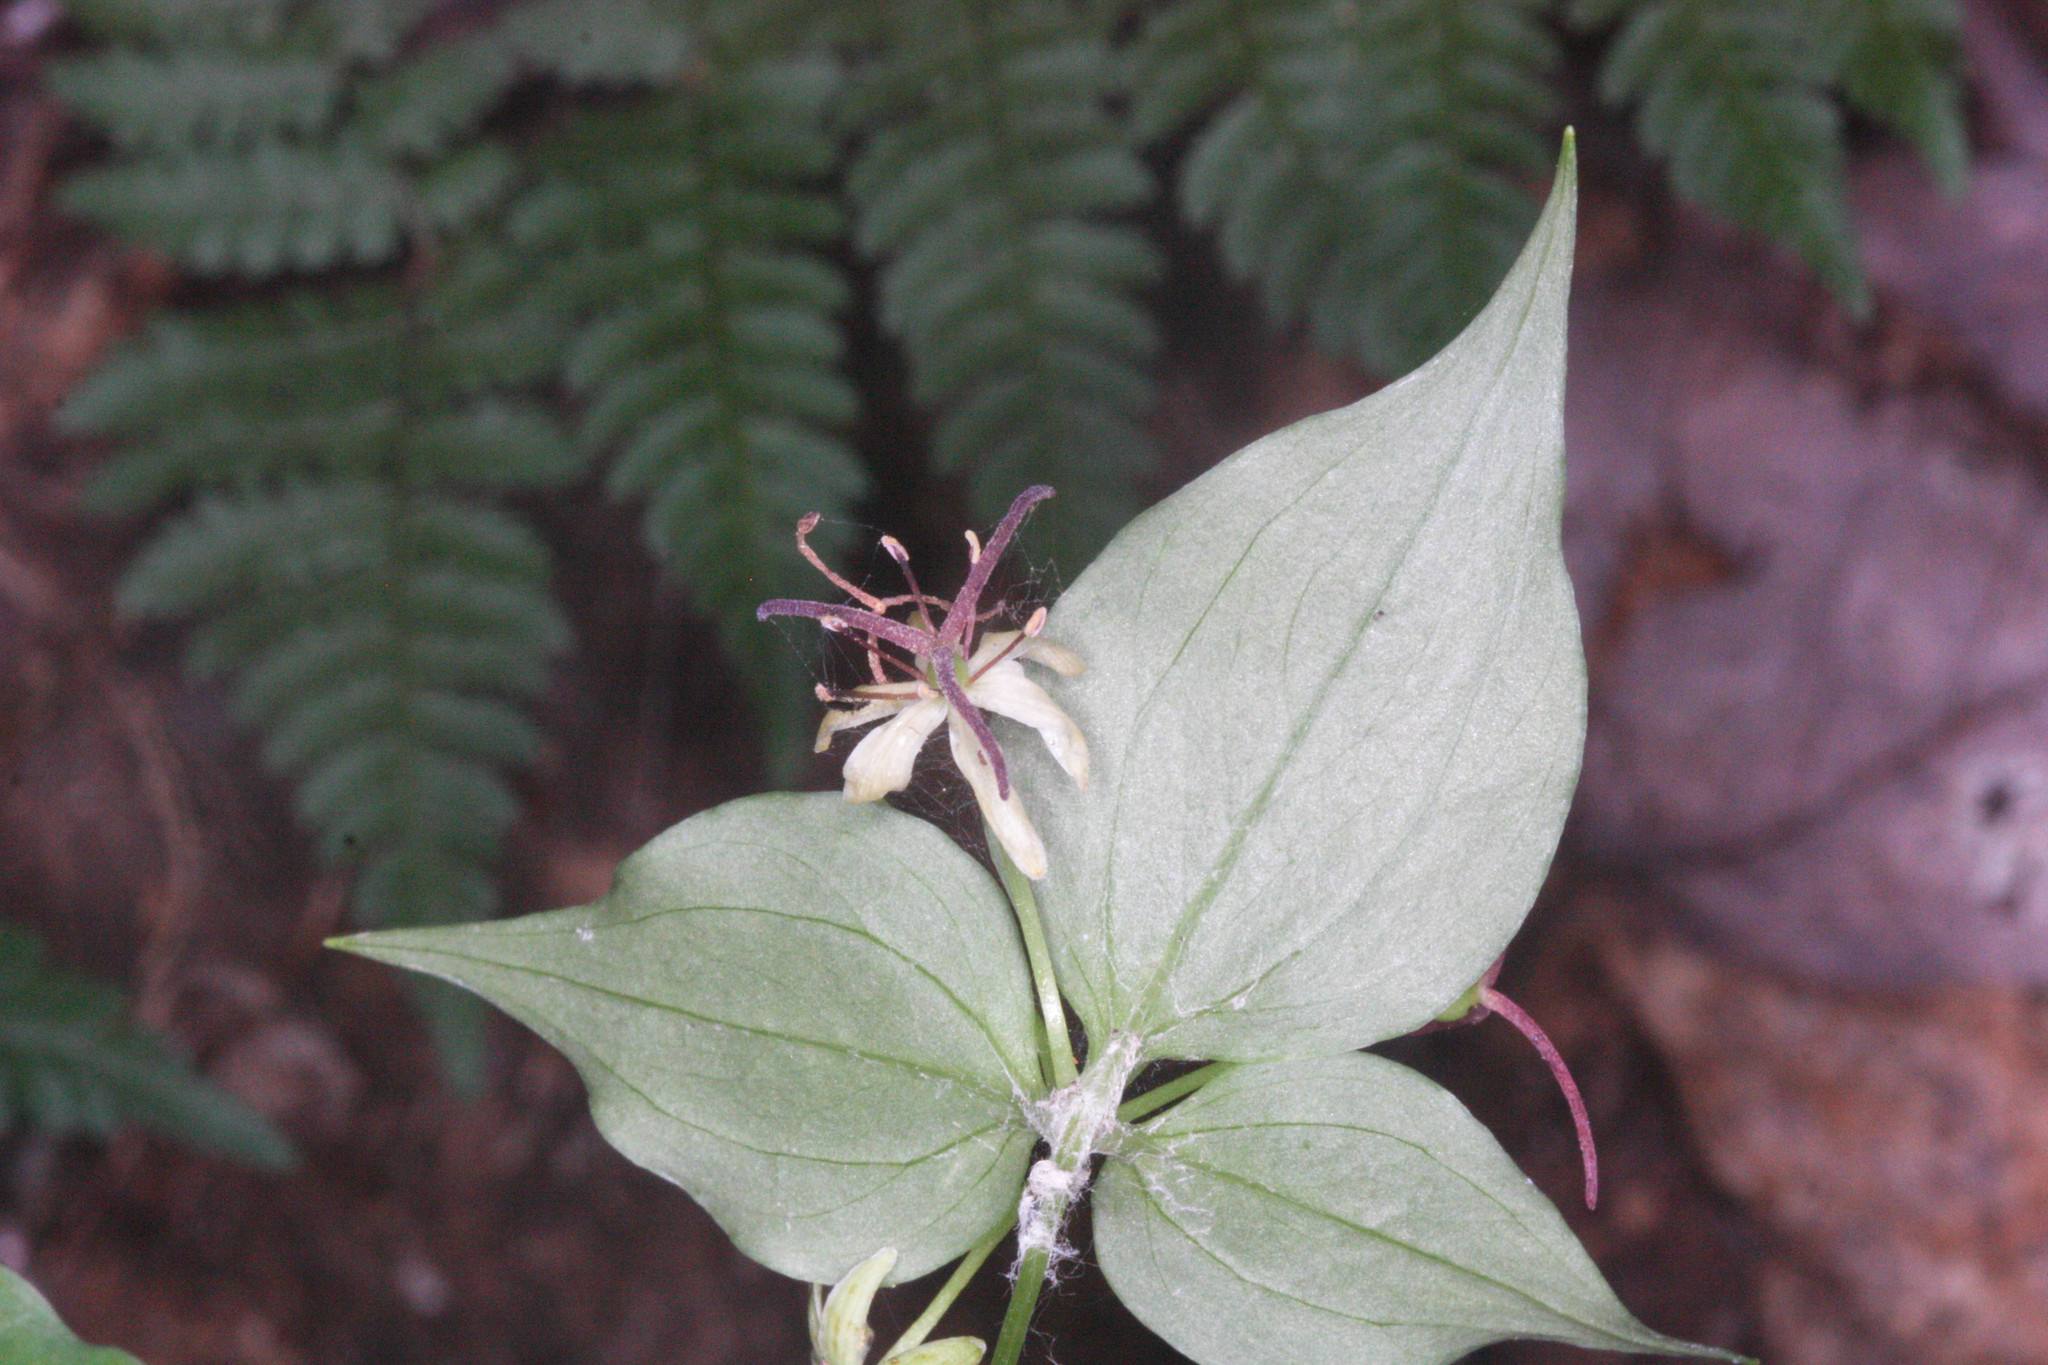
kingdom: Plantae
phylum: Tracheophyta
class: Liliopsida
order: Liliales
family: Liliaceae
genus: Medeola
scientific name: Medeola virginiana
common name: Indian cucumber-root
